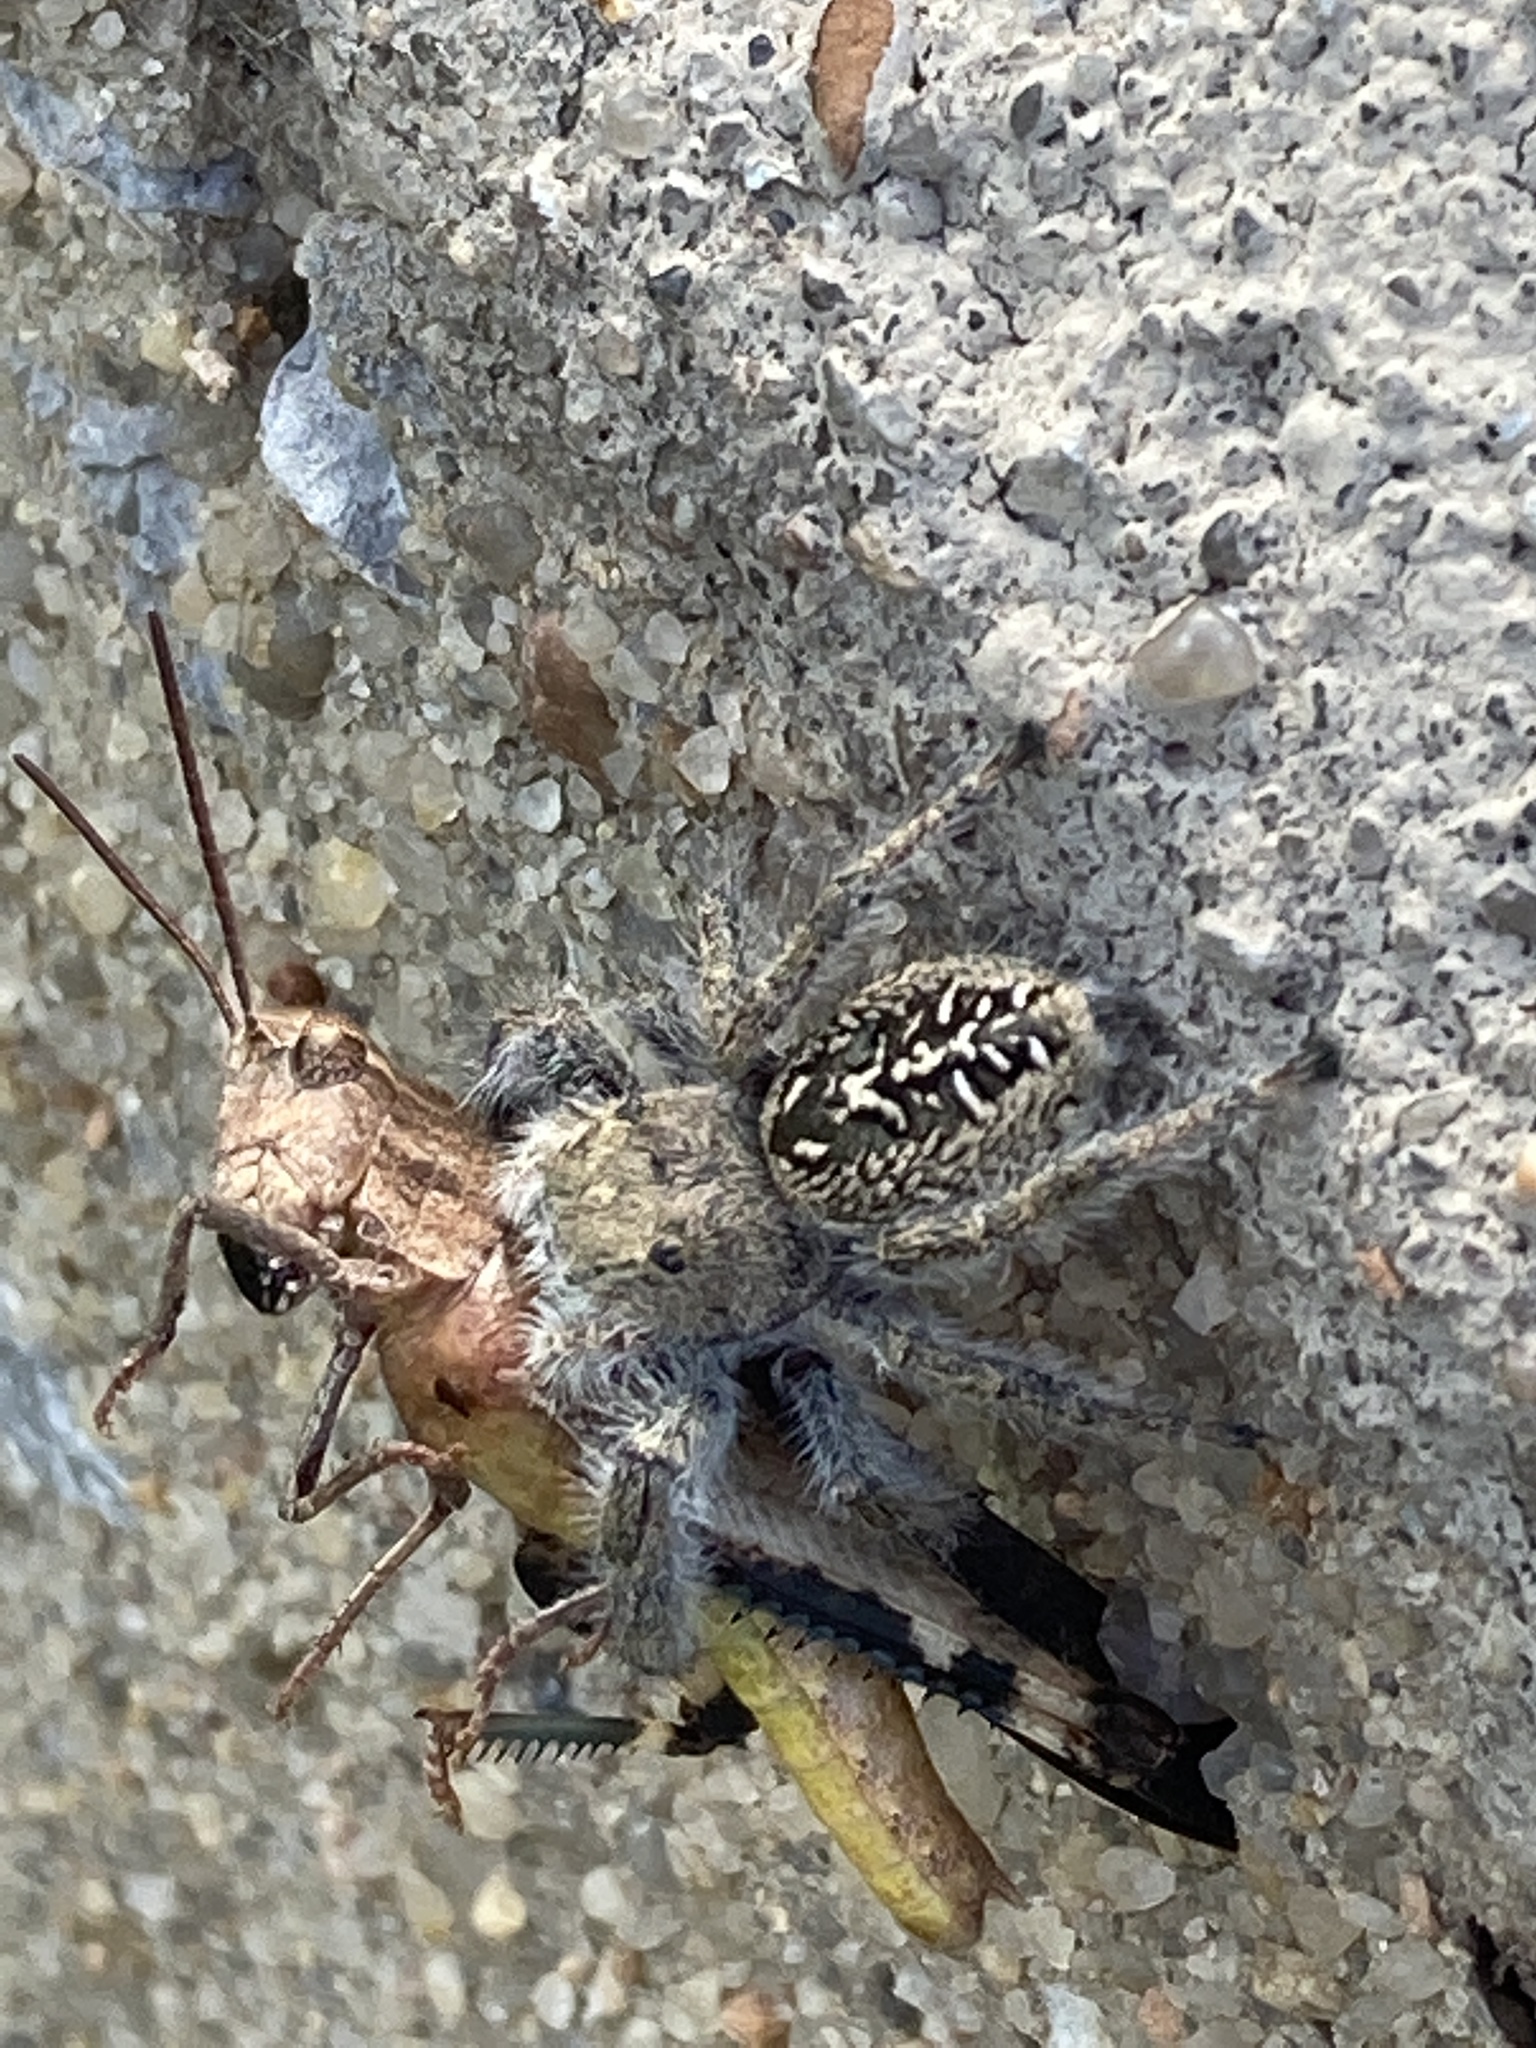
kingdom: Animalia
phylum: Arthropoda
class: Arachnida
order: Araneae
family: Salticidae
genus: Phidippus
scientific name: Phidippus texanus
